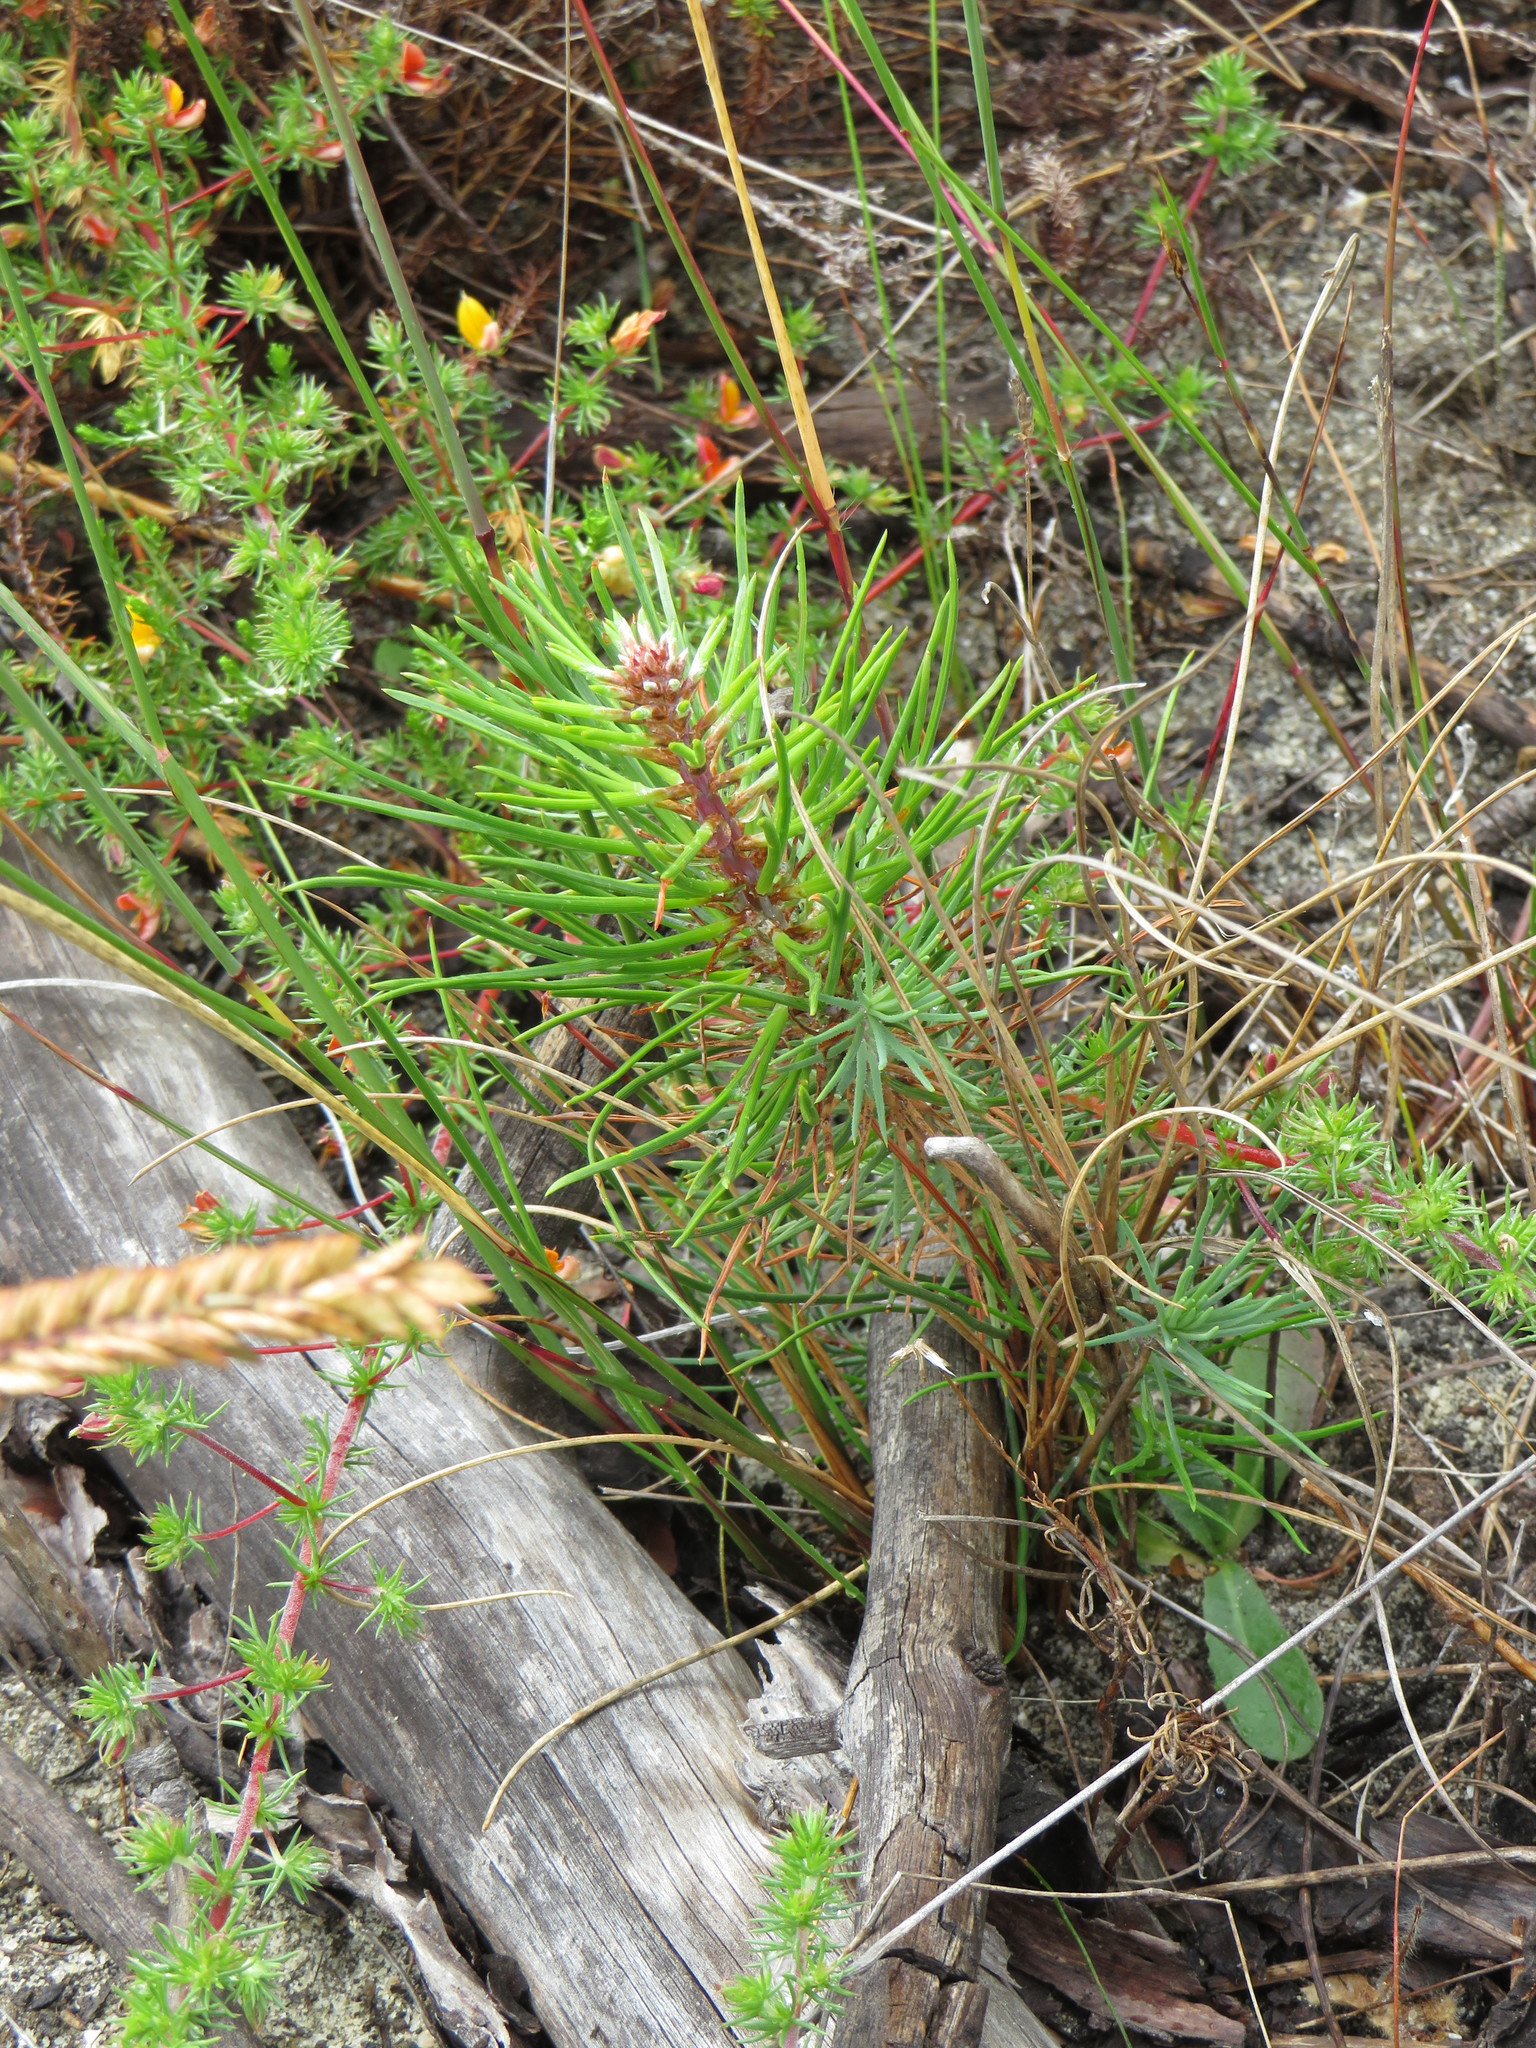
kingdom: Plantae
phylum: Tracheophyta
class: Pinopsida
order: Pinales
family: Pinaceae
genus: Pinus
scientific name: Pinus pinaster
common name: Maritime pine
